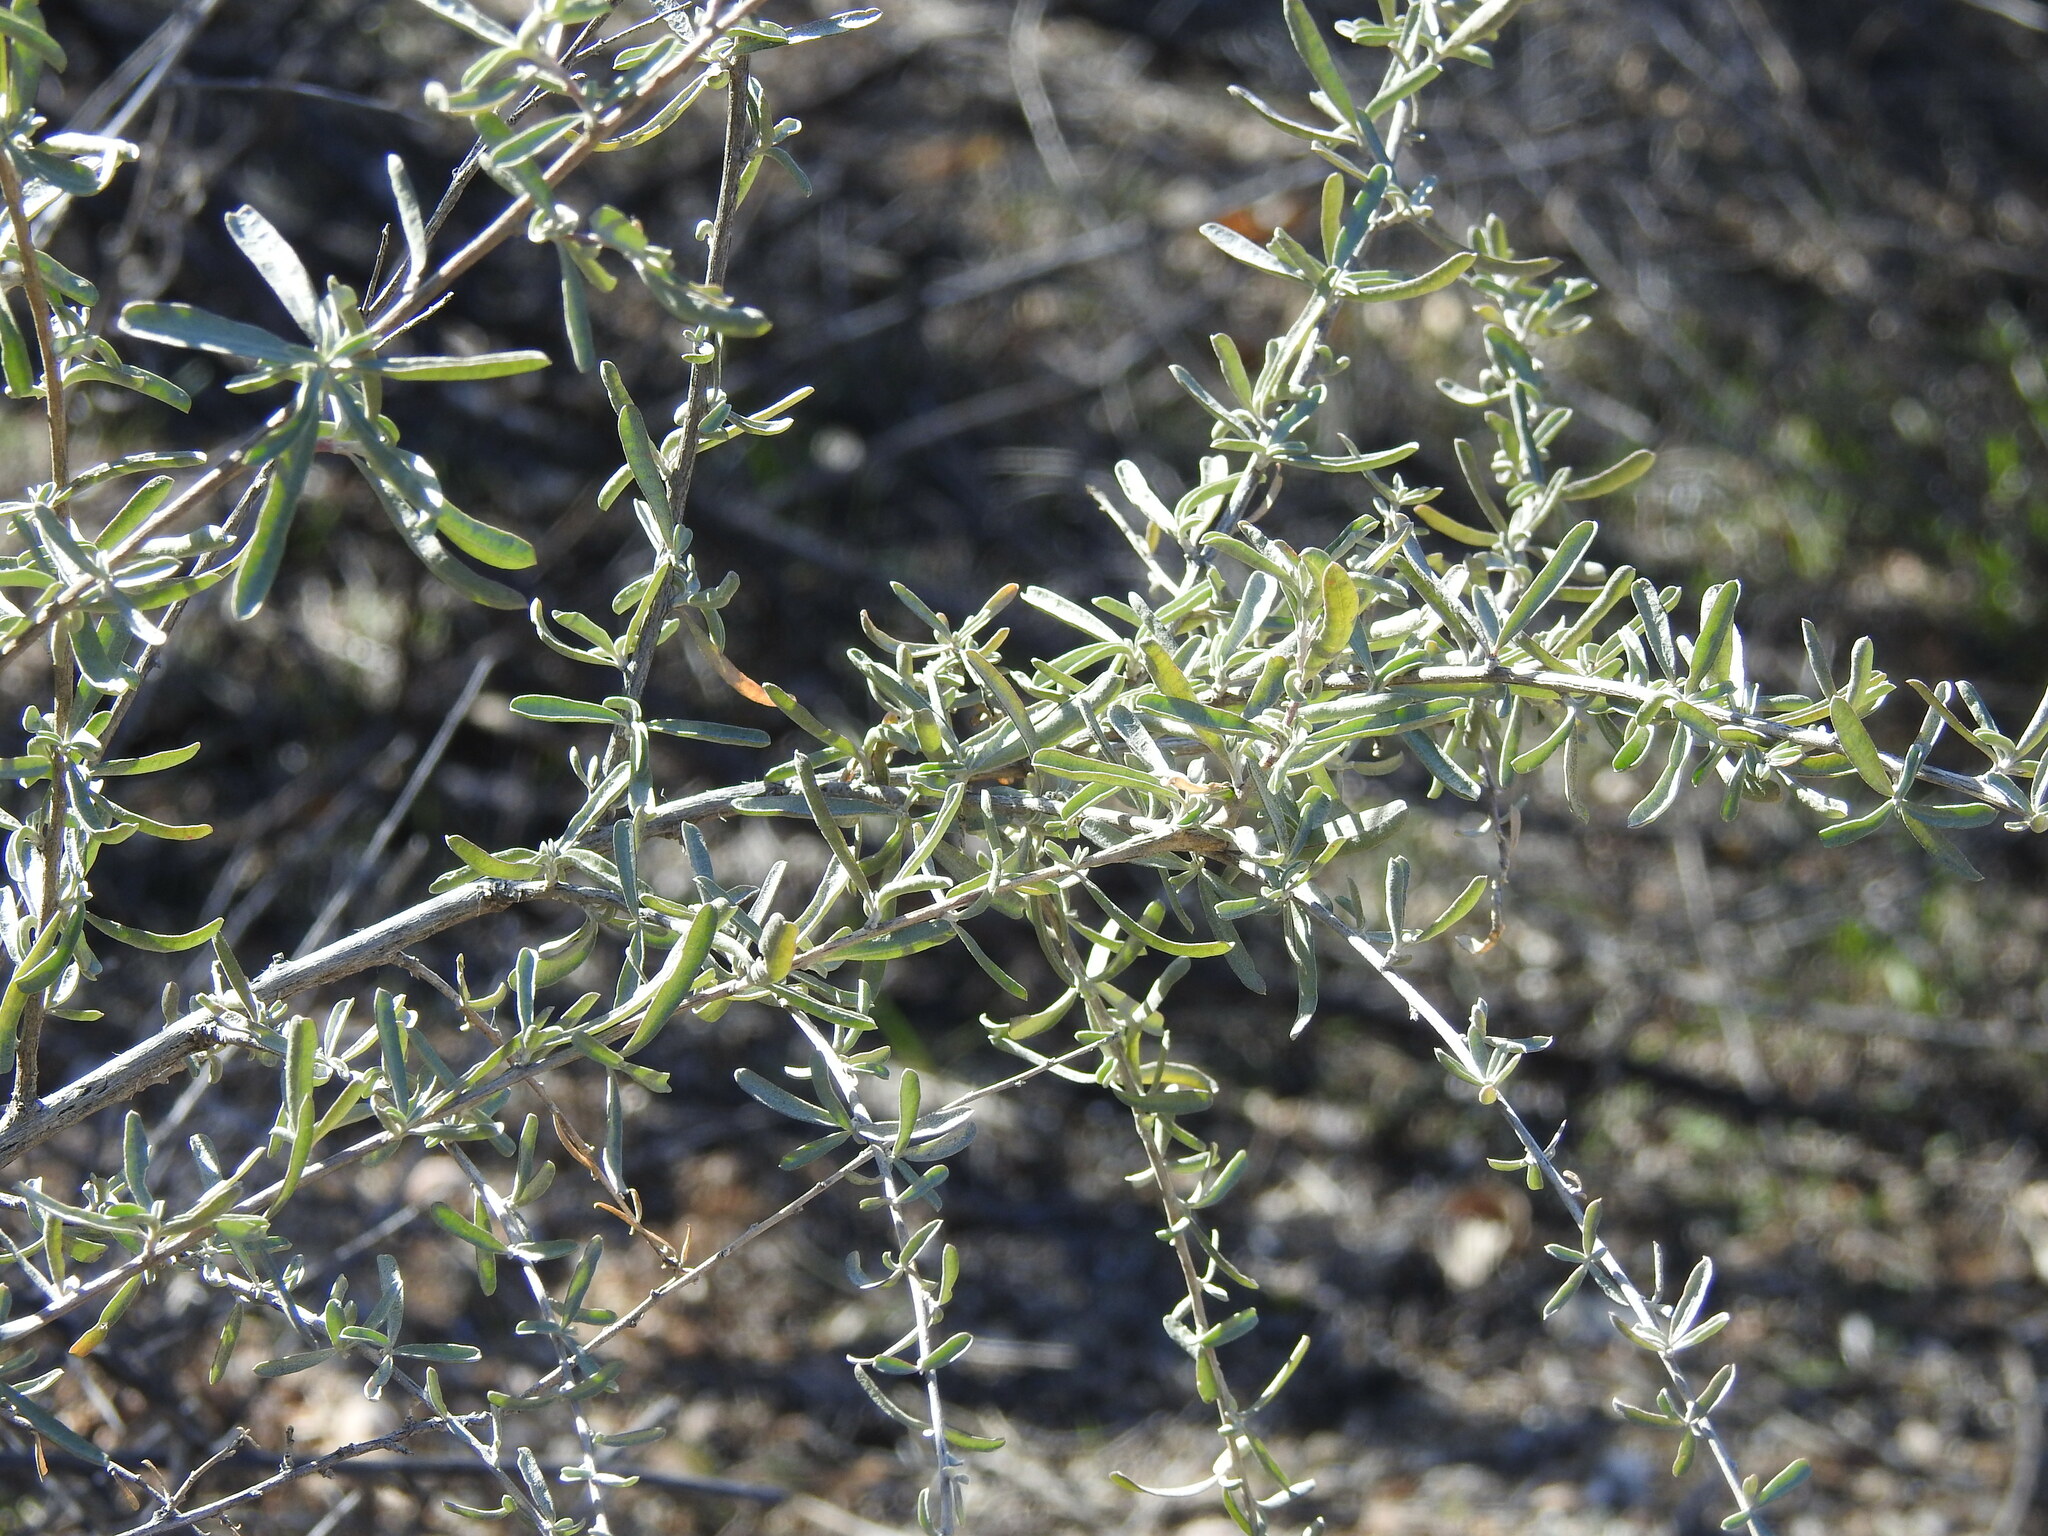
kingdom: Plantae
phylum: Tracheophyta
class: Magnoliopsida
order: Caryophyllales
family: Amaranthaceae
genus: Atriplex
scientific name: Atriplex canescens
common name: Four-wing saltbush
